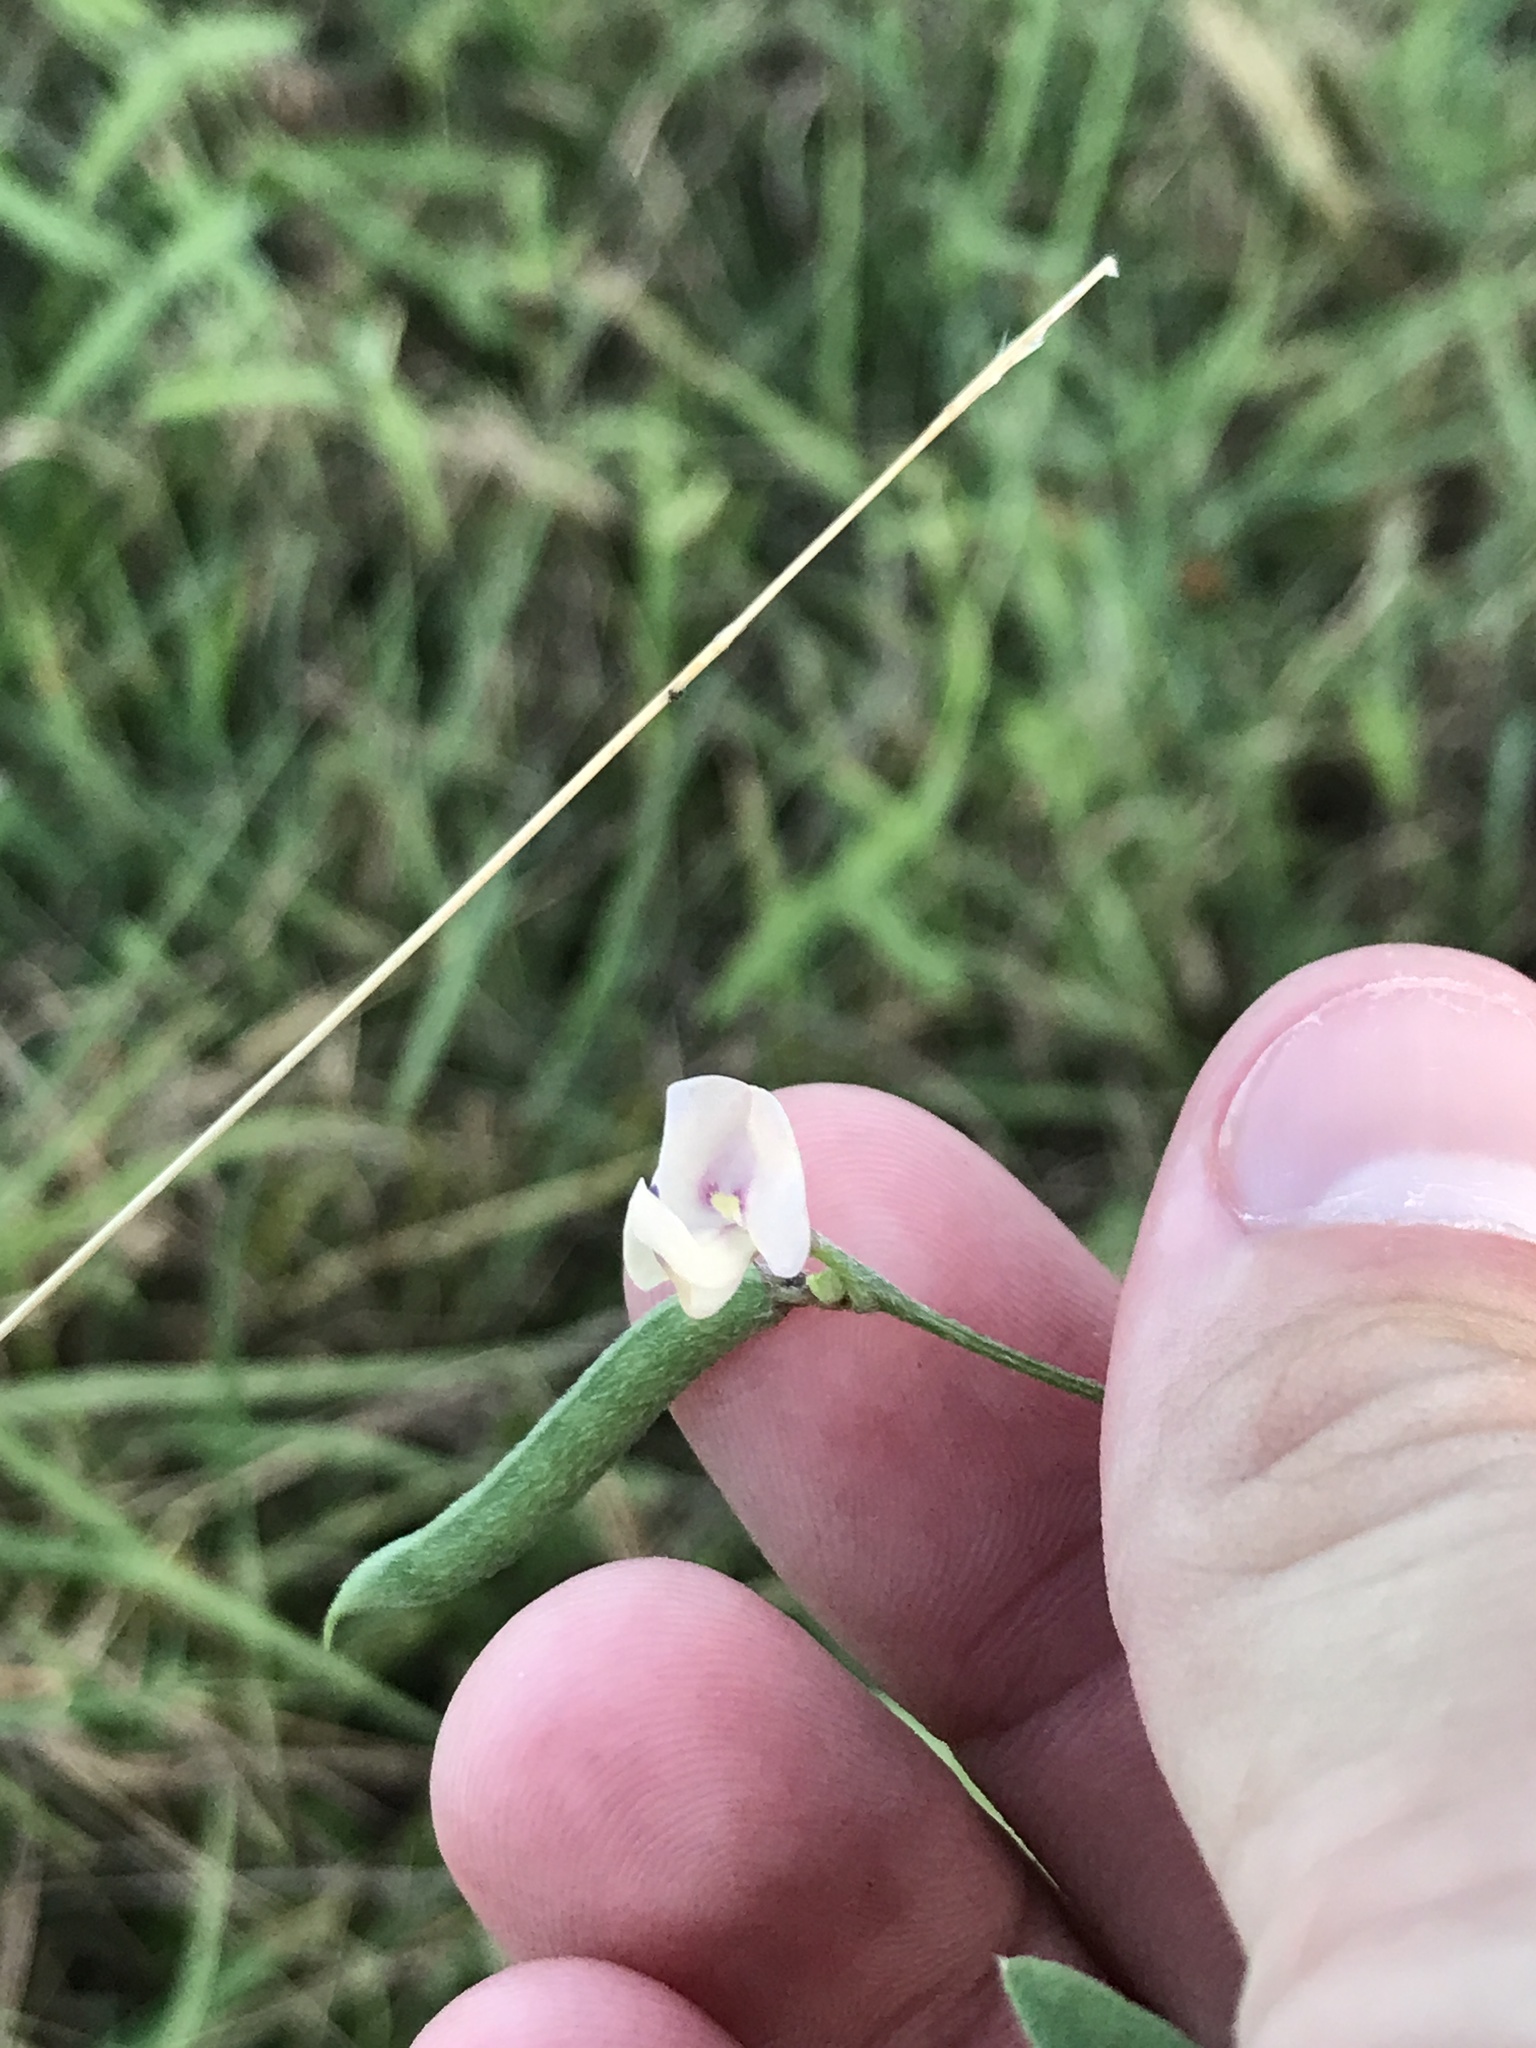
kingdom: Plantae
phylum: Tracheophyta
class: Magnoliopsida
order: Fabales
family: Fabaceae
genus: Strophostyles
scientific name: Strophostyles leiosperma
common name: Smooth-seed wild bean
